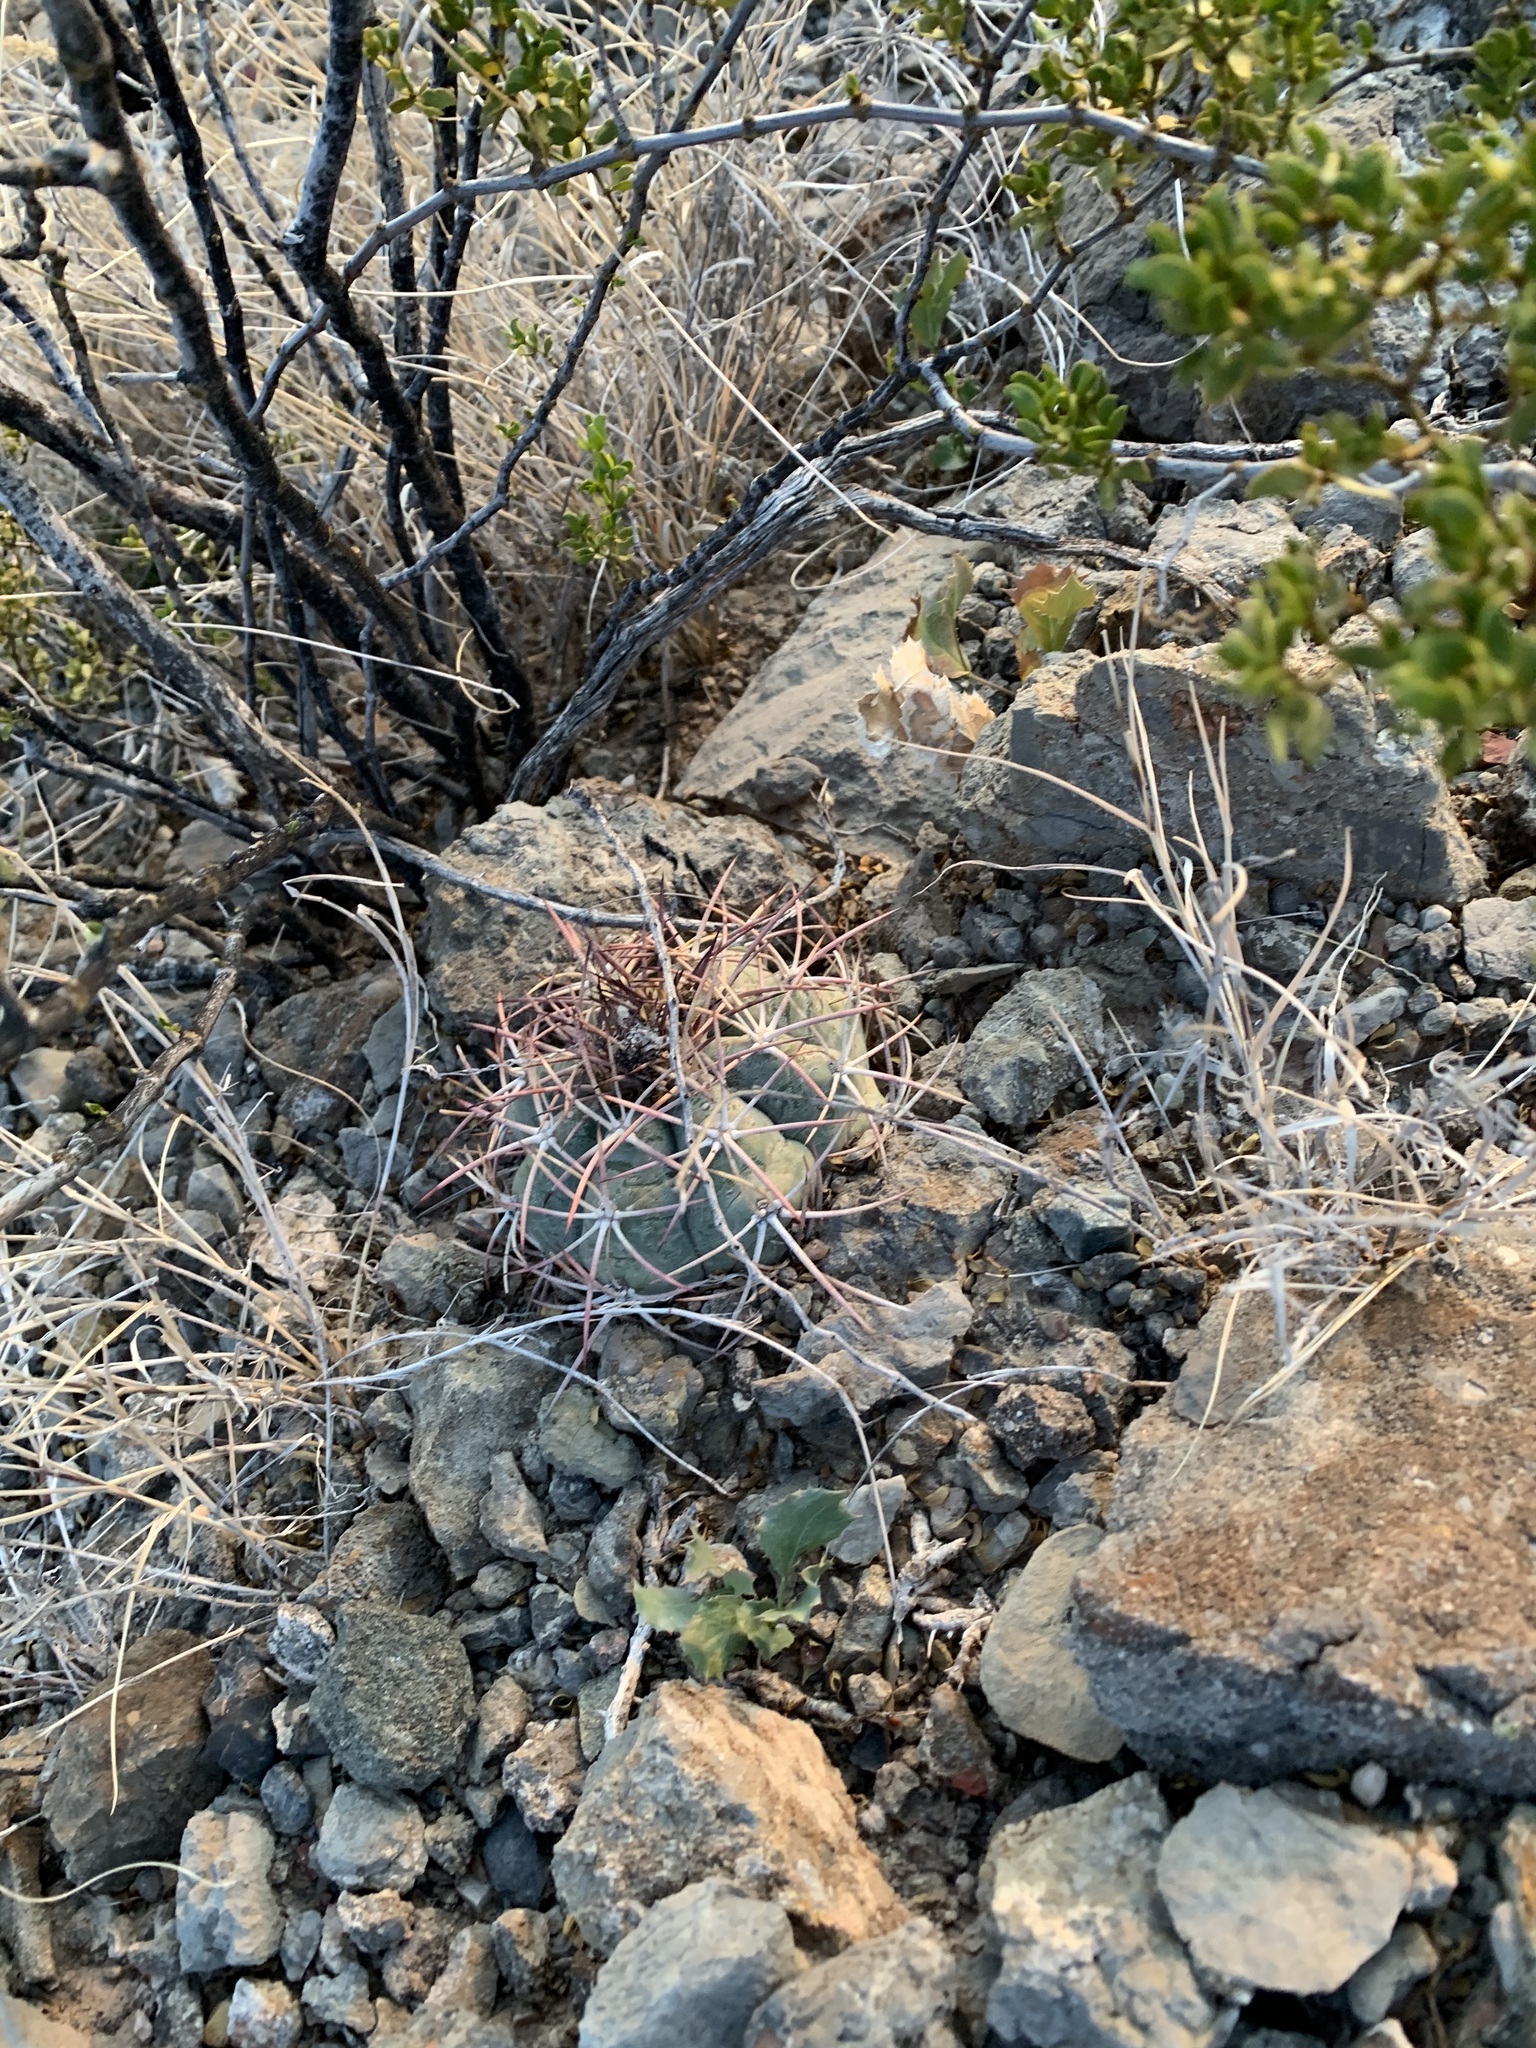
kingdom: Plantae
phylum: Tracheophyta
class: Magnoliopsida
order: Caryophyllales
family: Cactaceae
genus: Echinocactus
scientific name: Echinocactus horizonthalonius
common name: Devilshead
